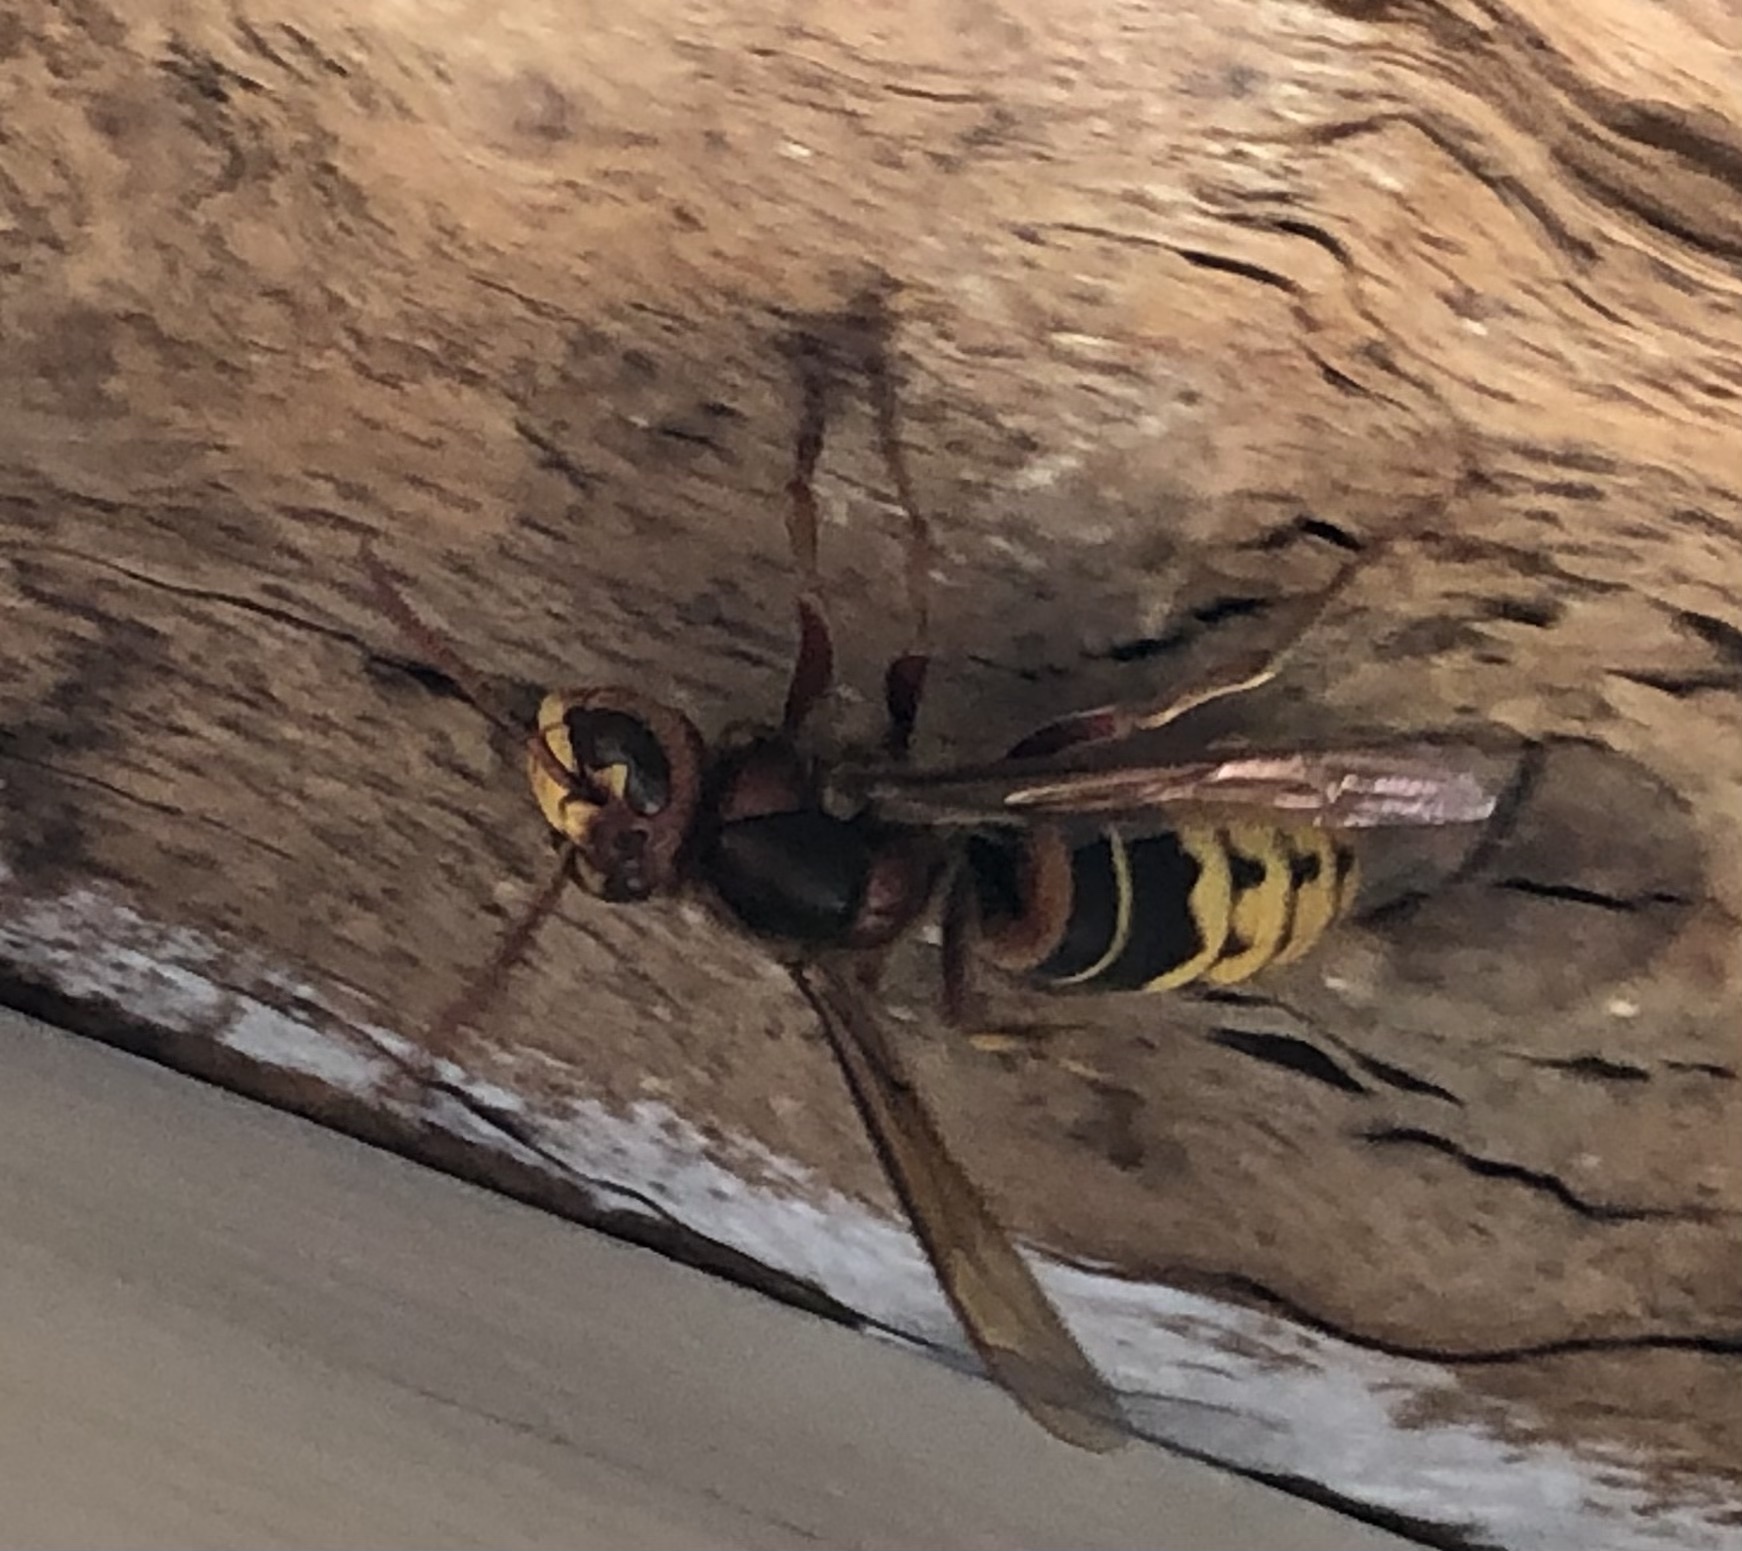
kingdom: Animalia
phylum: Arthropoda
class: Insecta
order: Hymenoptera
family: Vespidae
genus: Vespa
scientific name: Vespa crabro
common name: Hornet
